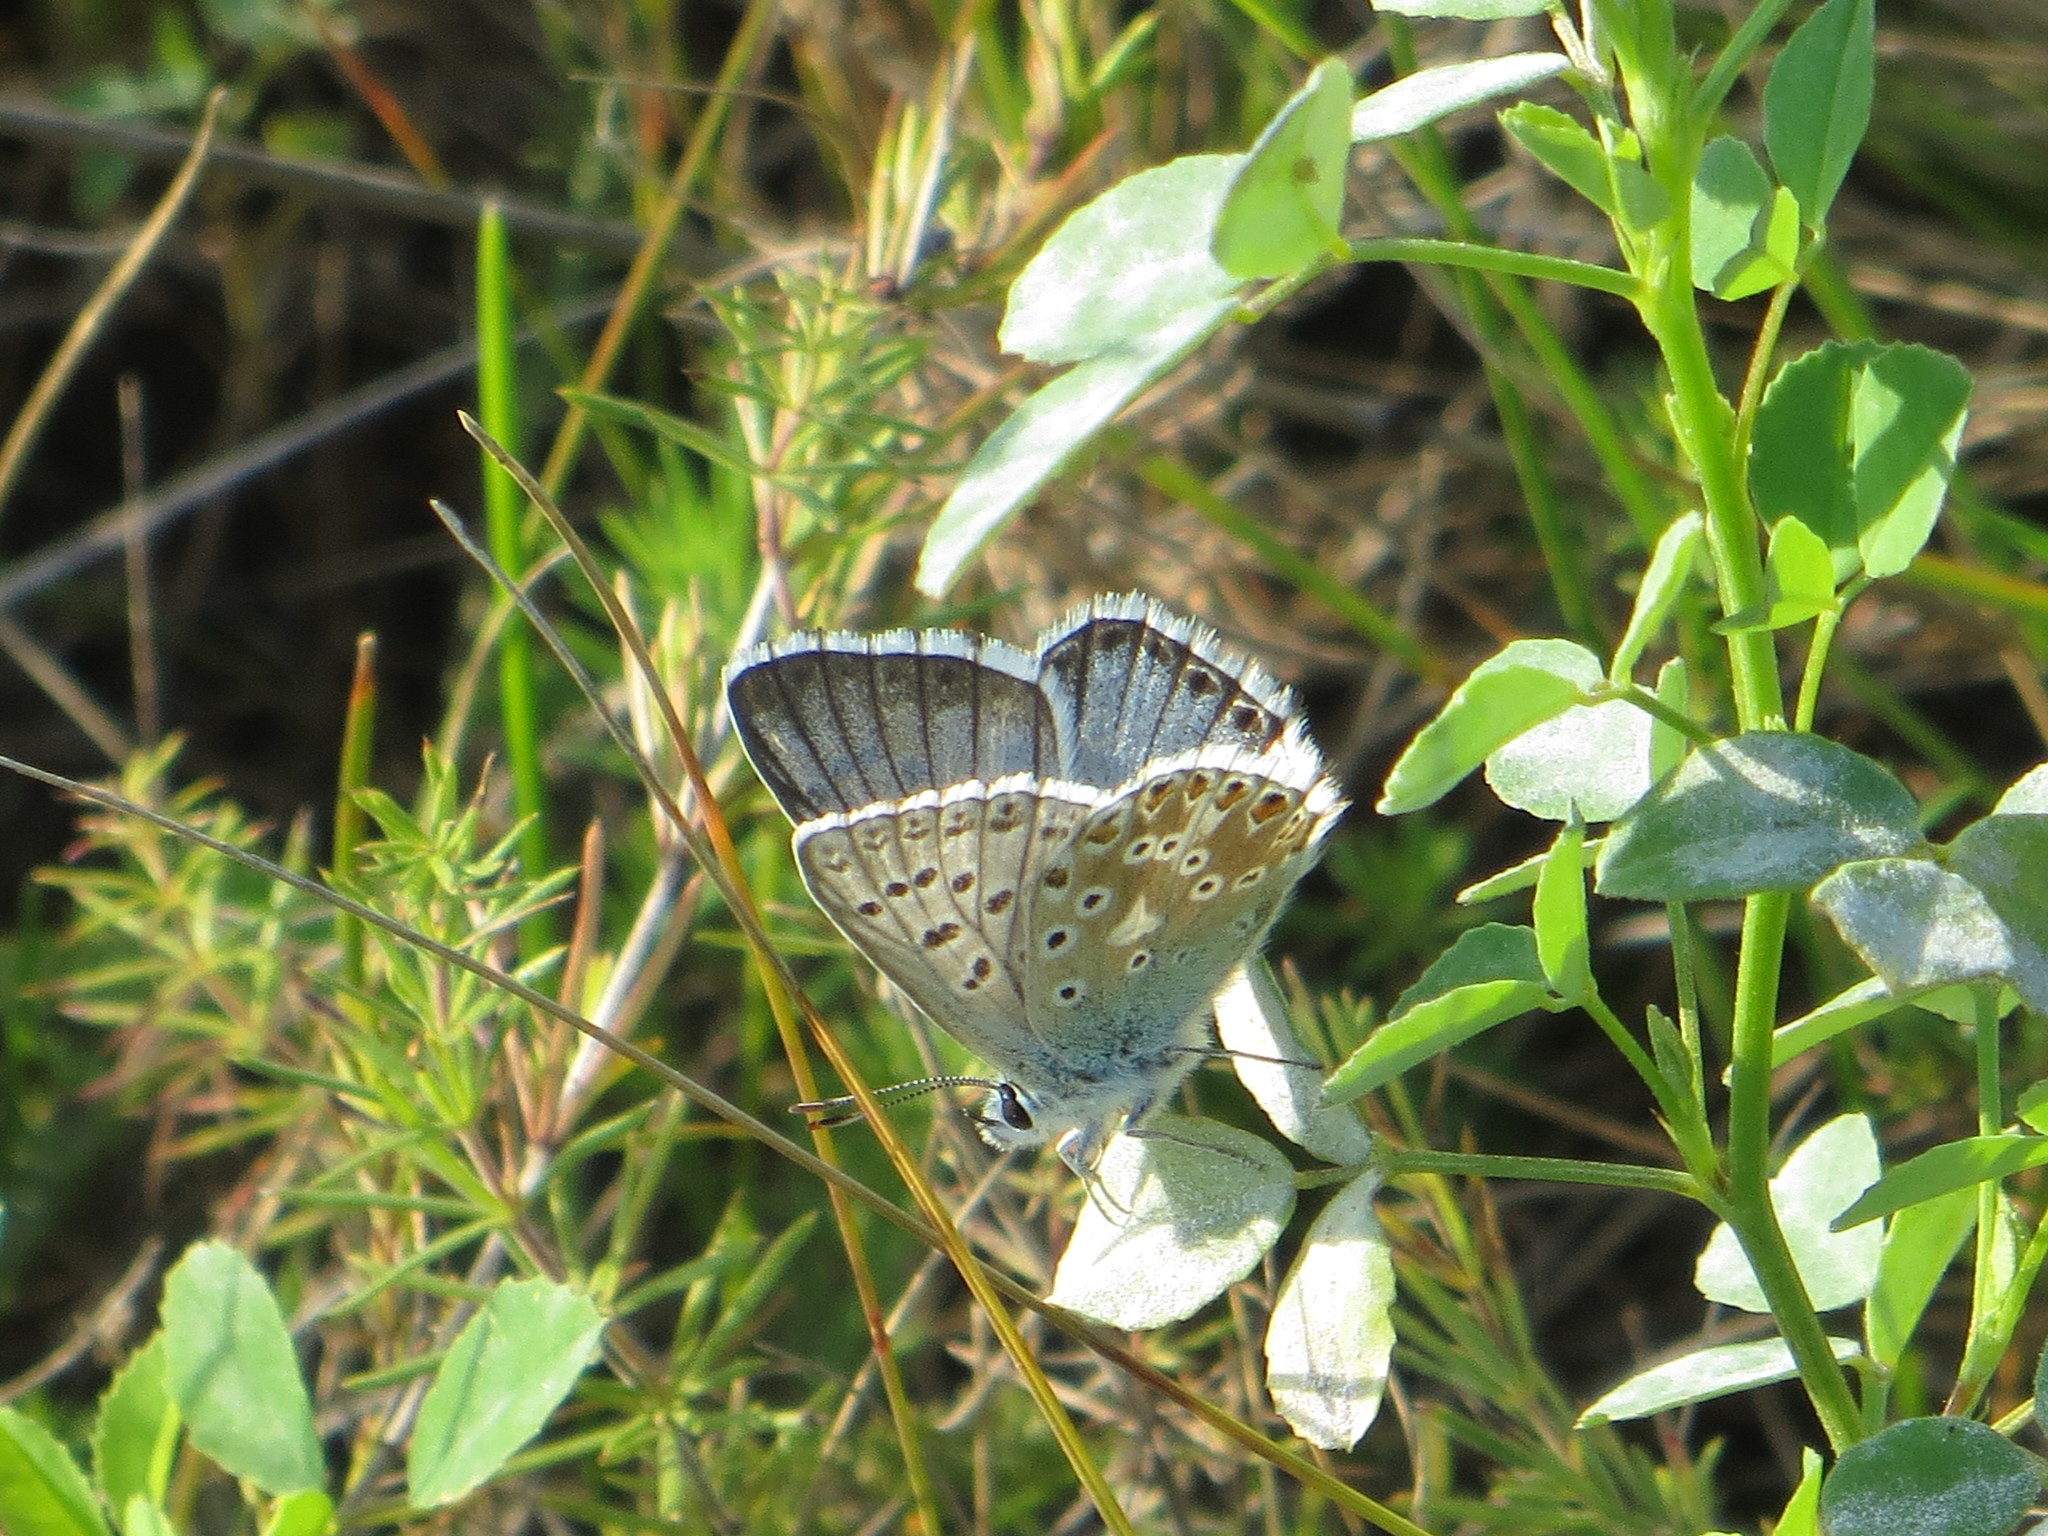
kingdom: Animalia
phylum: Arthropoda
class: Insecta
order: Lepidoptera
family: Lycaenidae
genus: Lysandra
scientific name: Lysandra coridon
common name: Chalkhill blue
